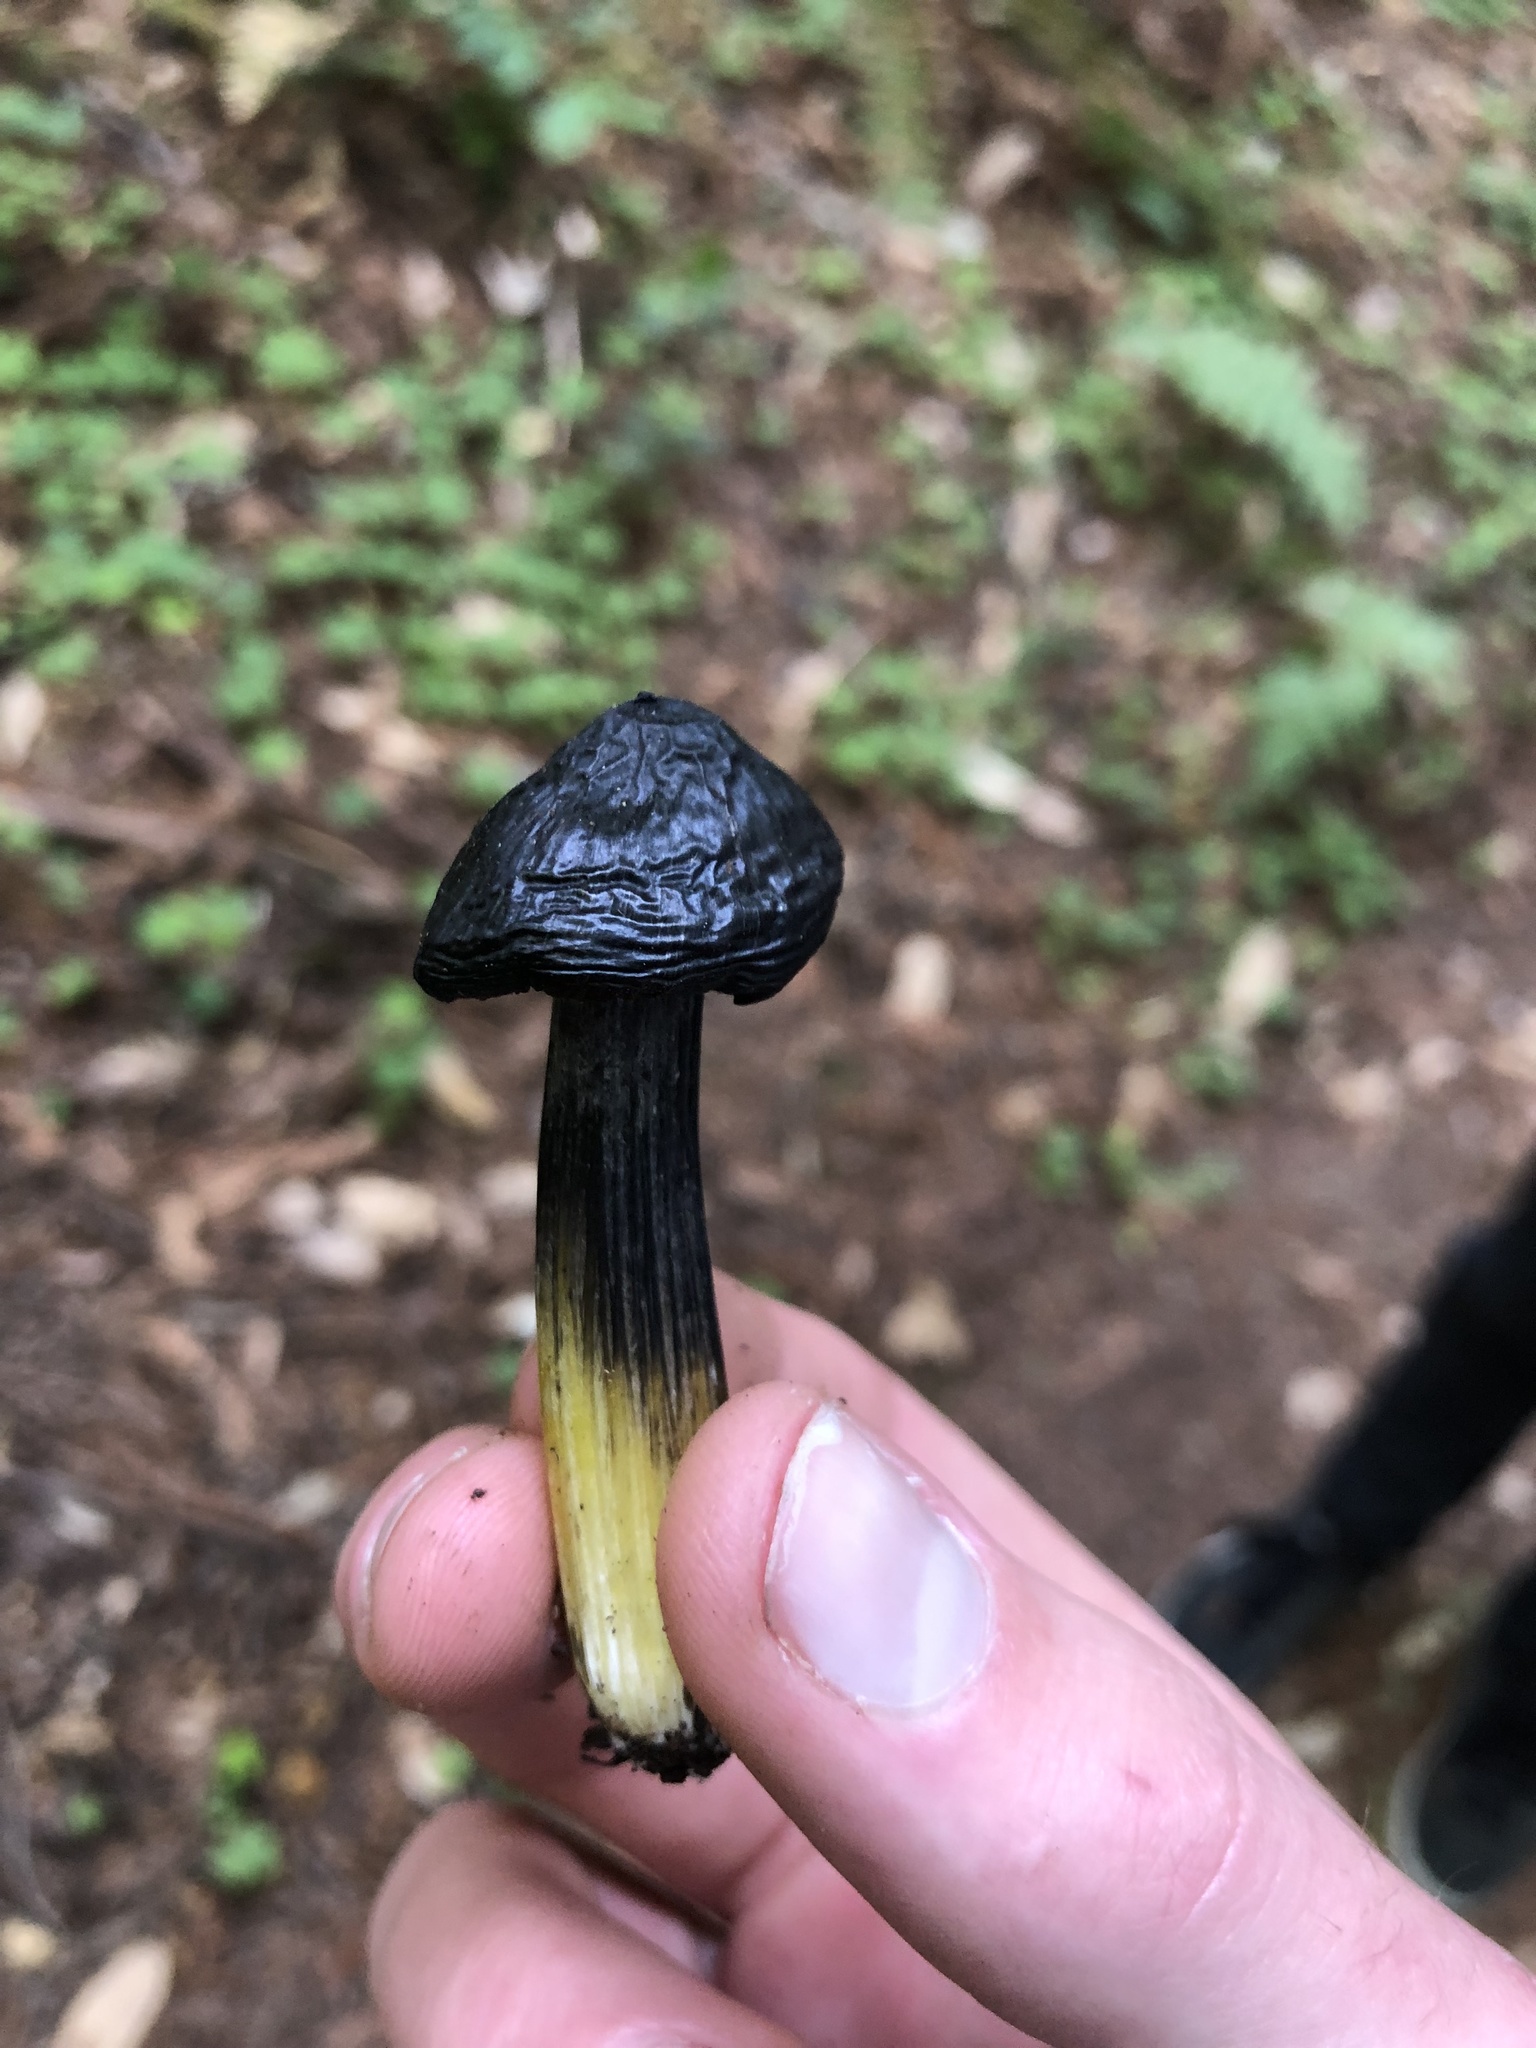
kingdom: Fungi
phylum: Basidiomycota
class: Agaricomycetes
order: Agaricales
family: Hygrophoraceae
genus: Hygrocybe
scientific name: Hygrocybe singeri
